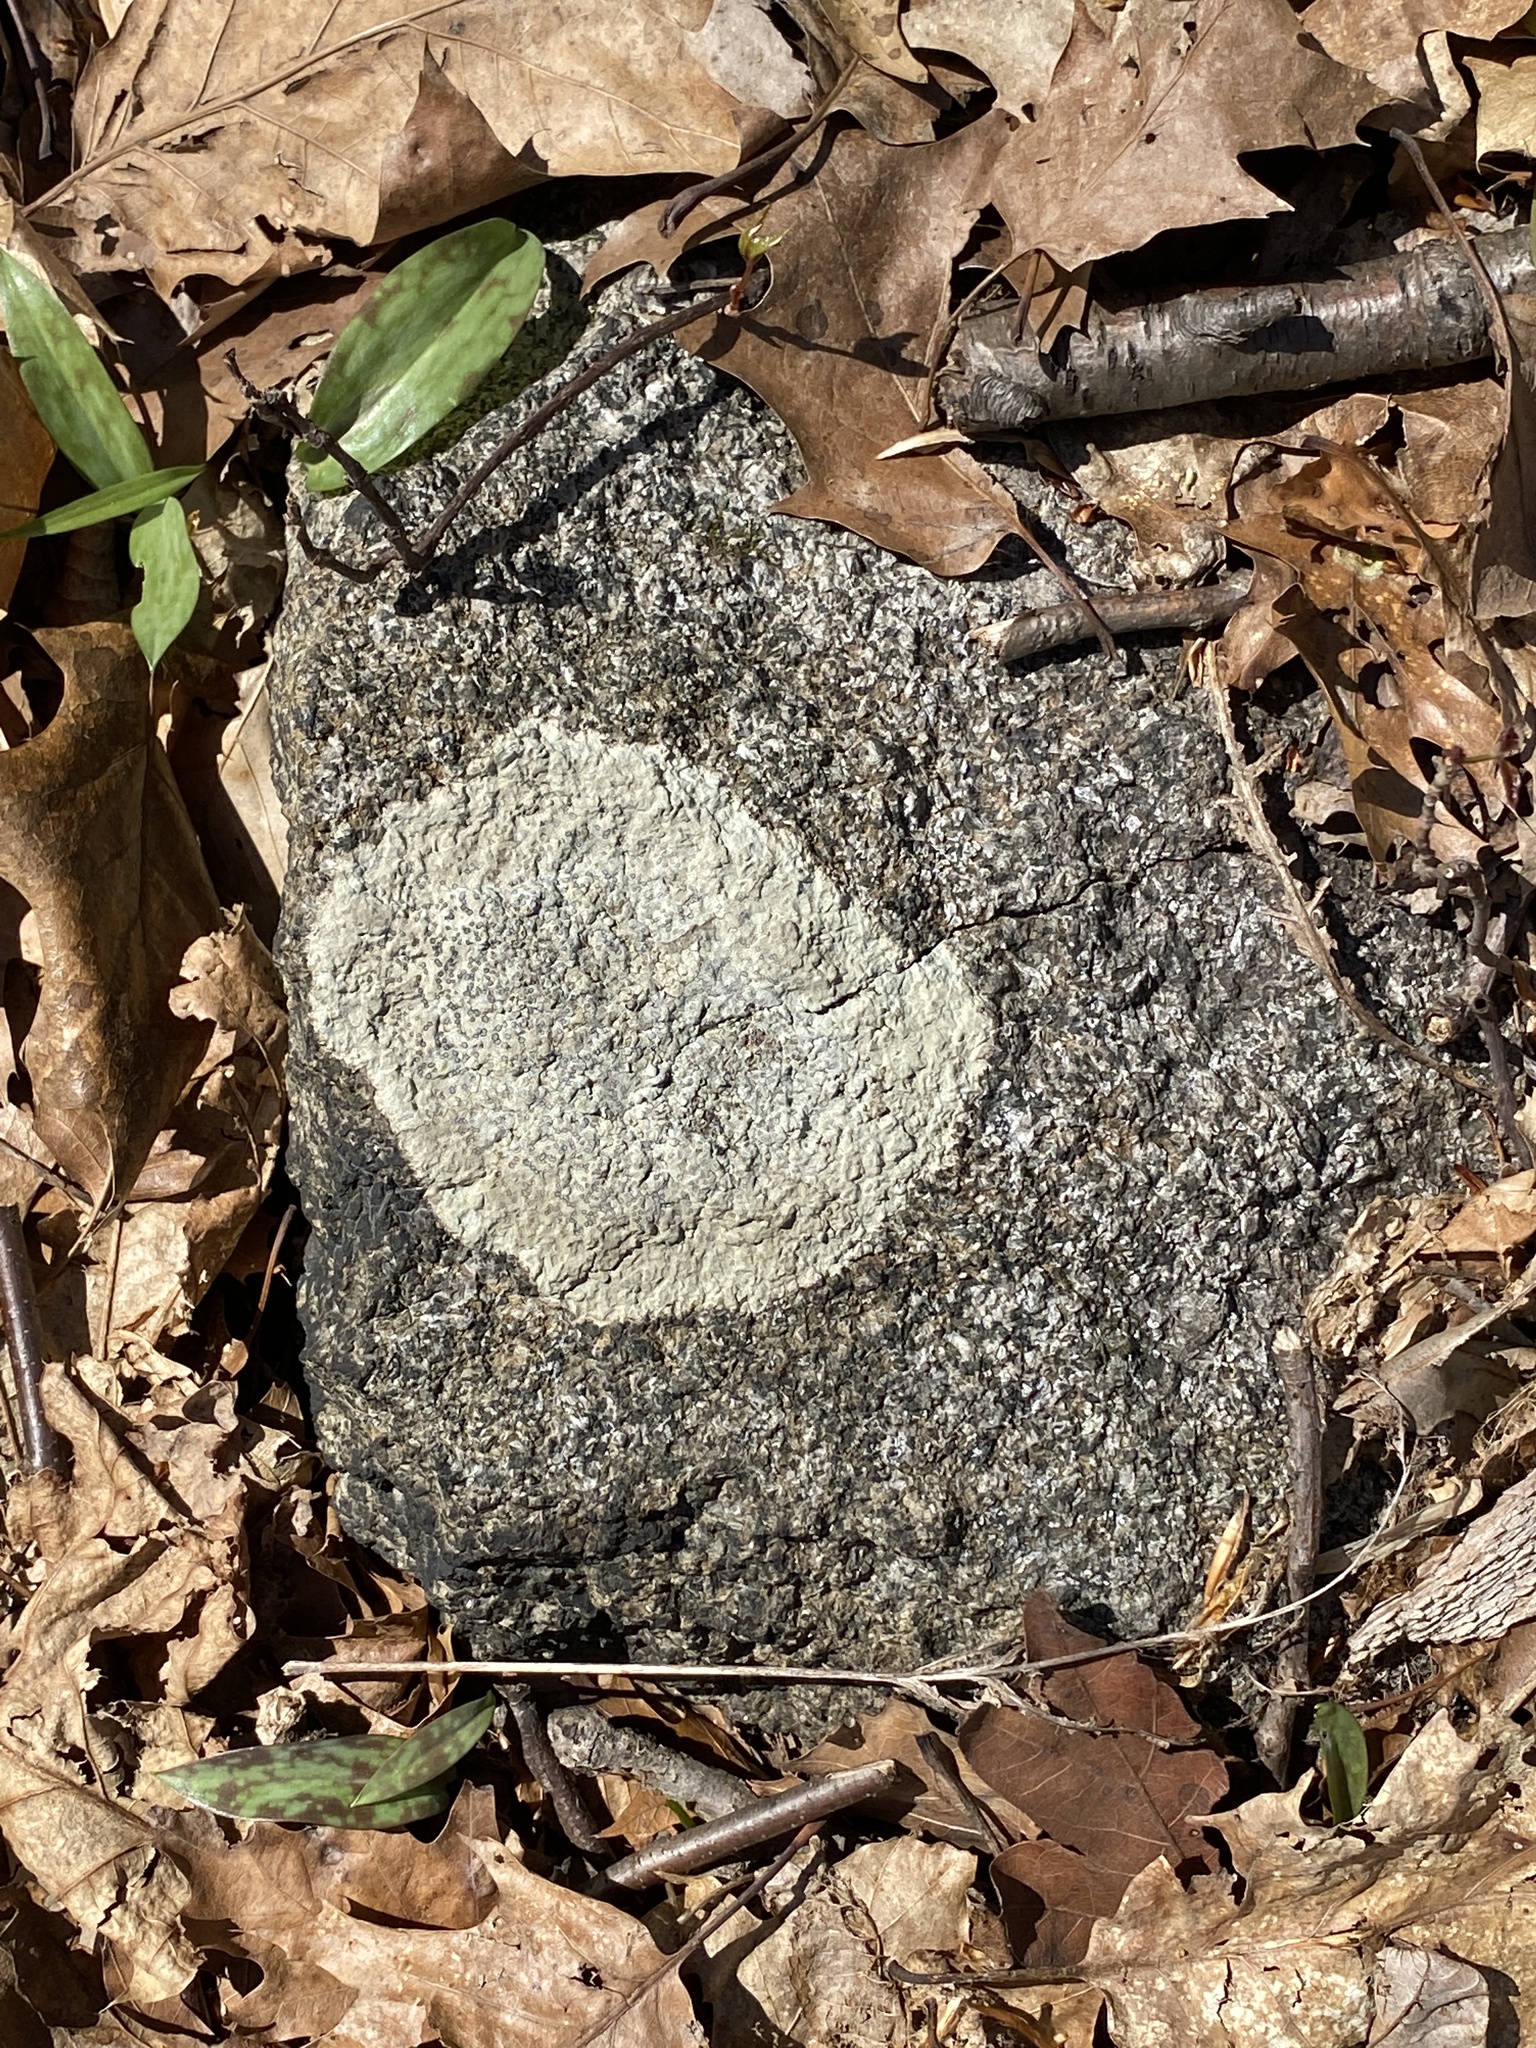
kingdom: Fungi
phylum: Ascomycota
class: Lecanoromycetes
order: Lecideales
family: Lecideaceae
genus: Porpidia
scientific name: Porpidia albocaerulescens
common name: Smokey-eyed boulder lichen
